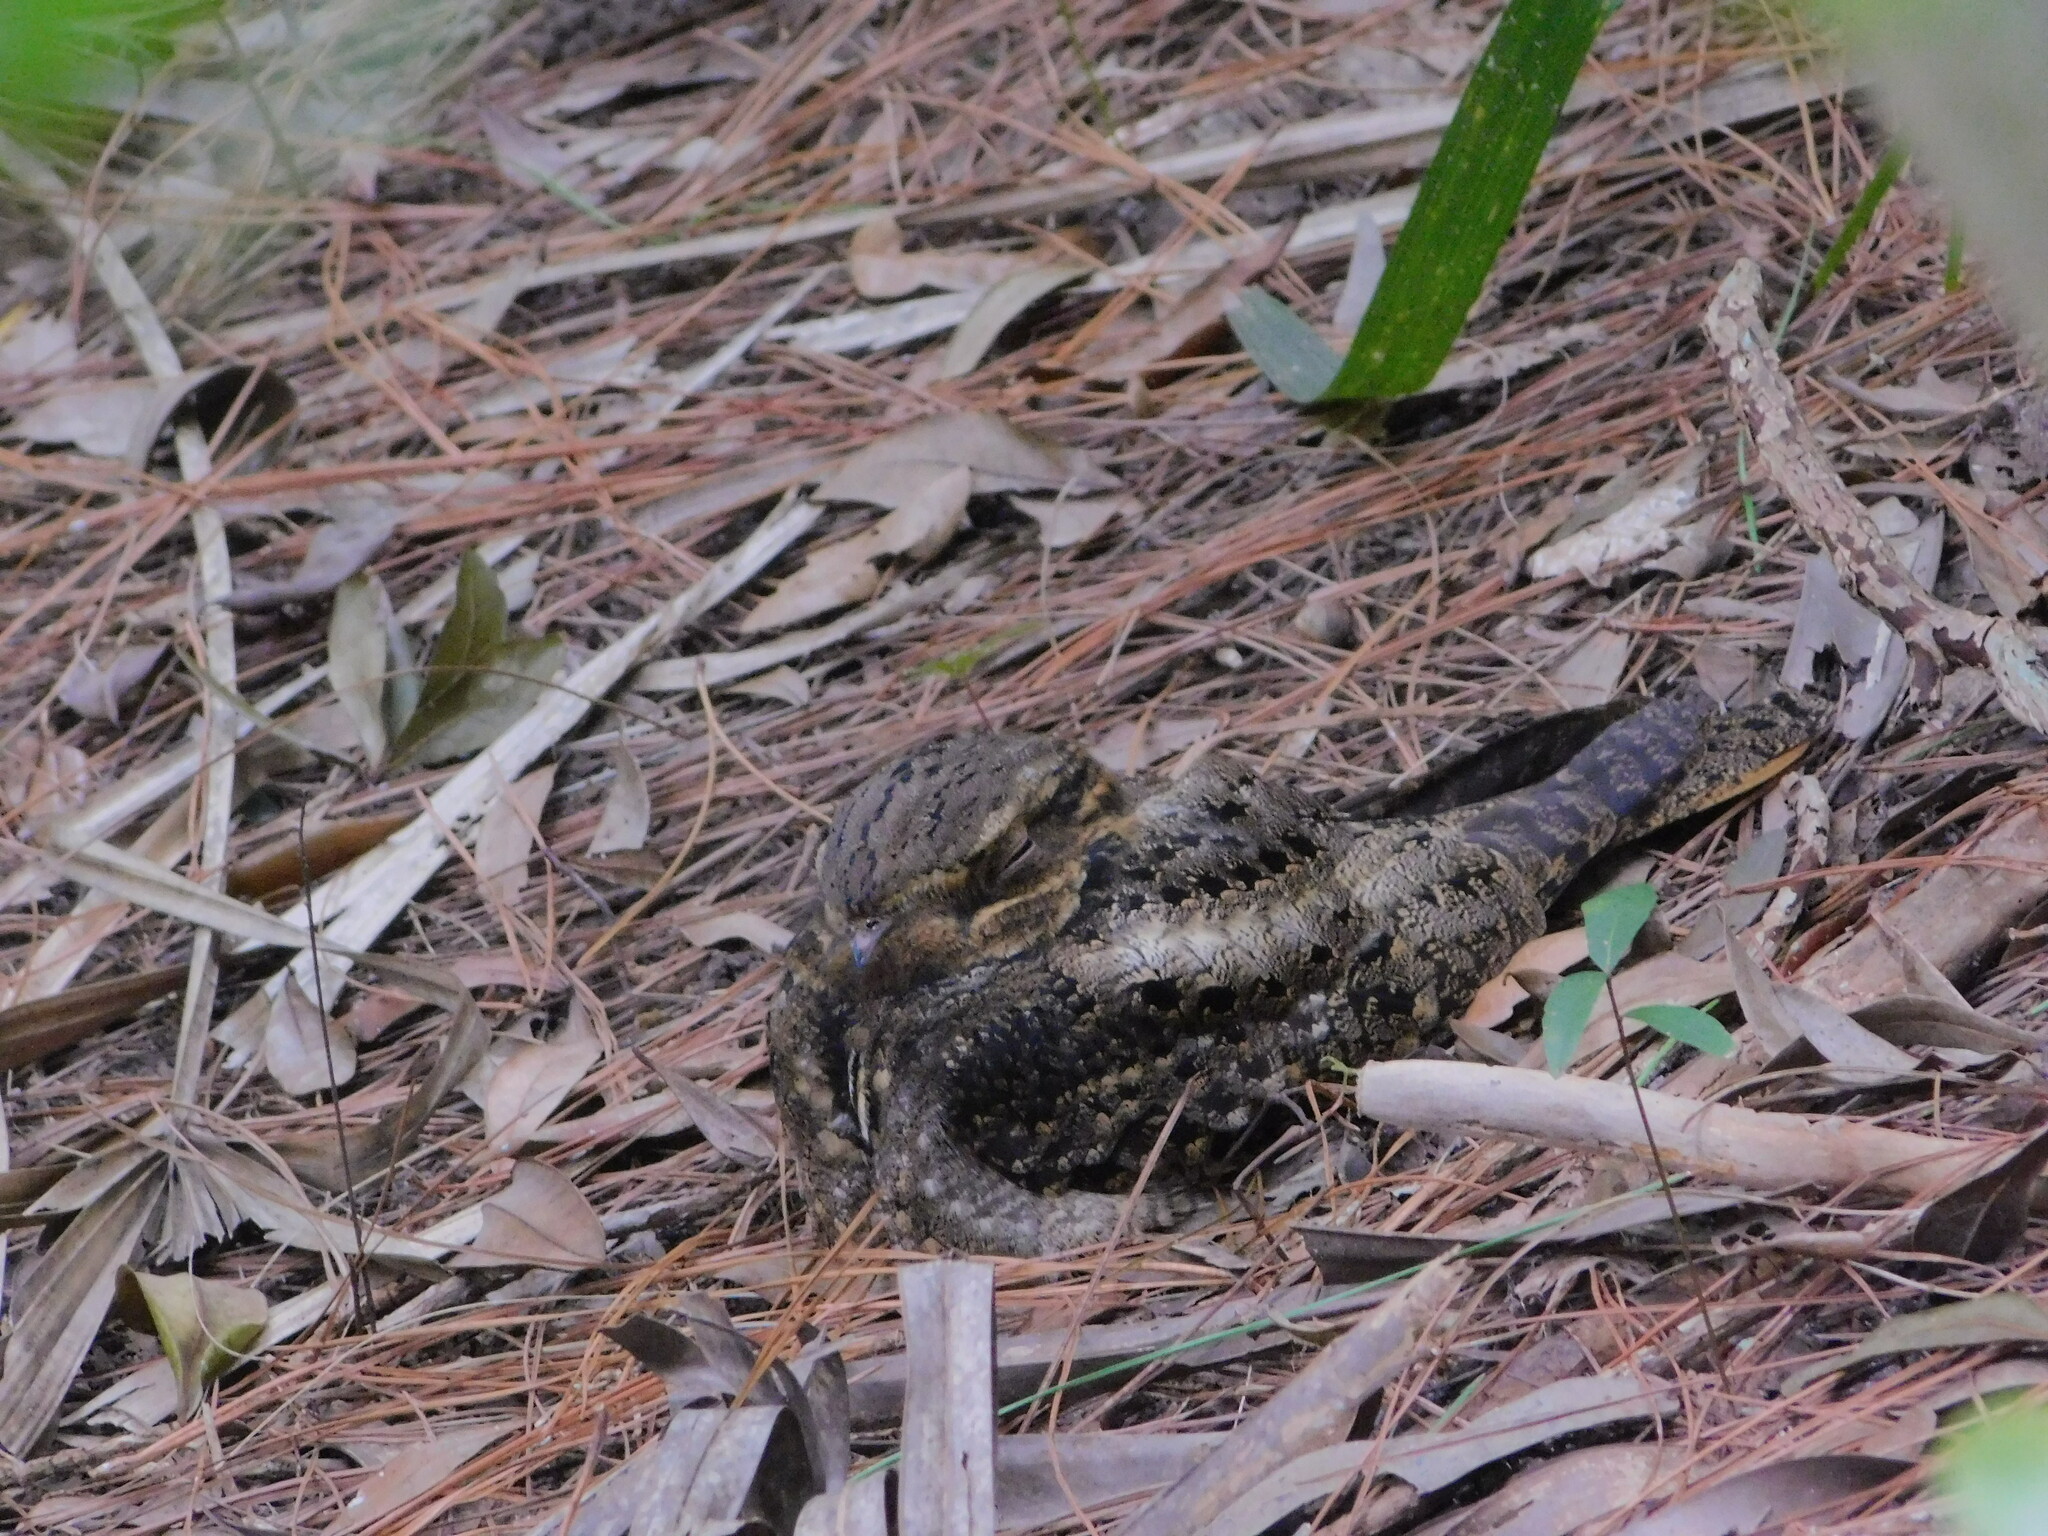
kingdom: Animalia
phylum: Chordata
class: Aves
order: Caprimulgiformes
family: Caprimulgidae
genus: Antrostomus
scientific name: Antrostomus carolinensis
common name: Chuck-will's-widow
